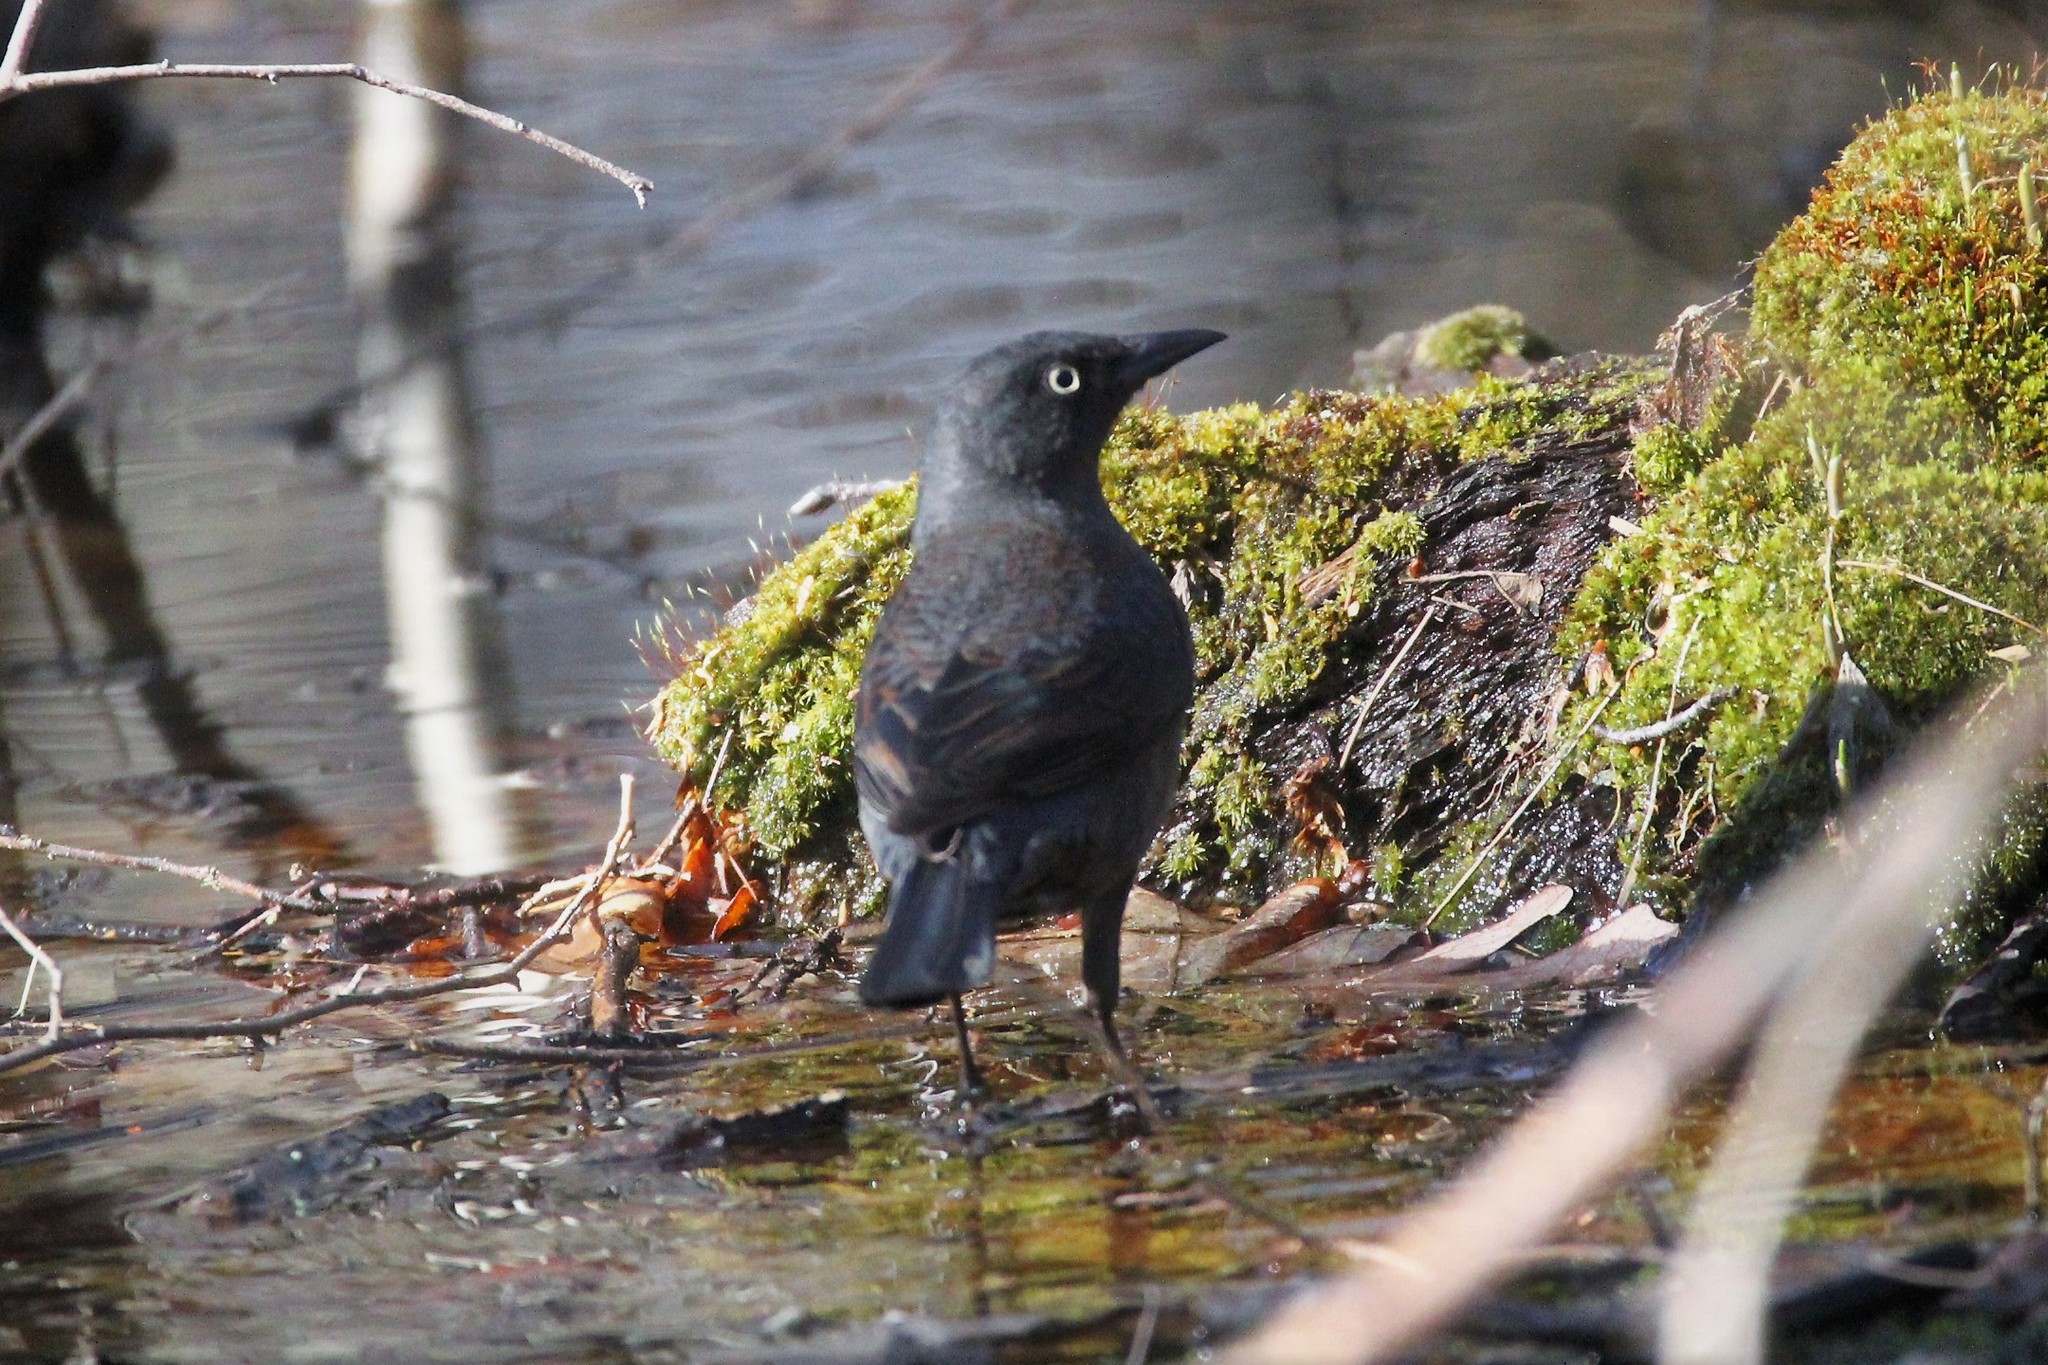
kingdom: Animalia
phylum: Chordata
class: Aves
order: Passeriformes
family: Icteridae
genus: Euphagus
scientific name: Euphagus carolinus
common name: Rusty blackbird
